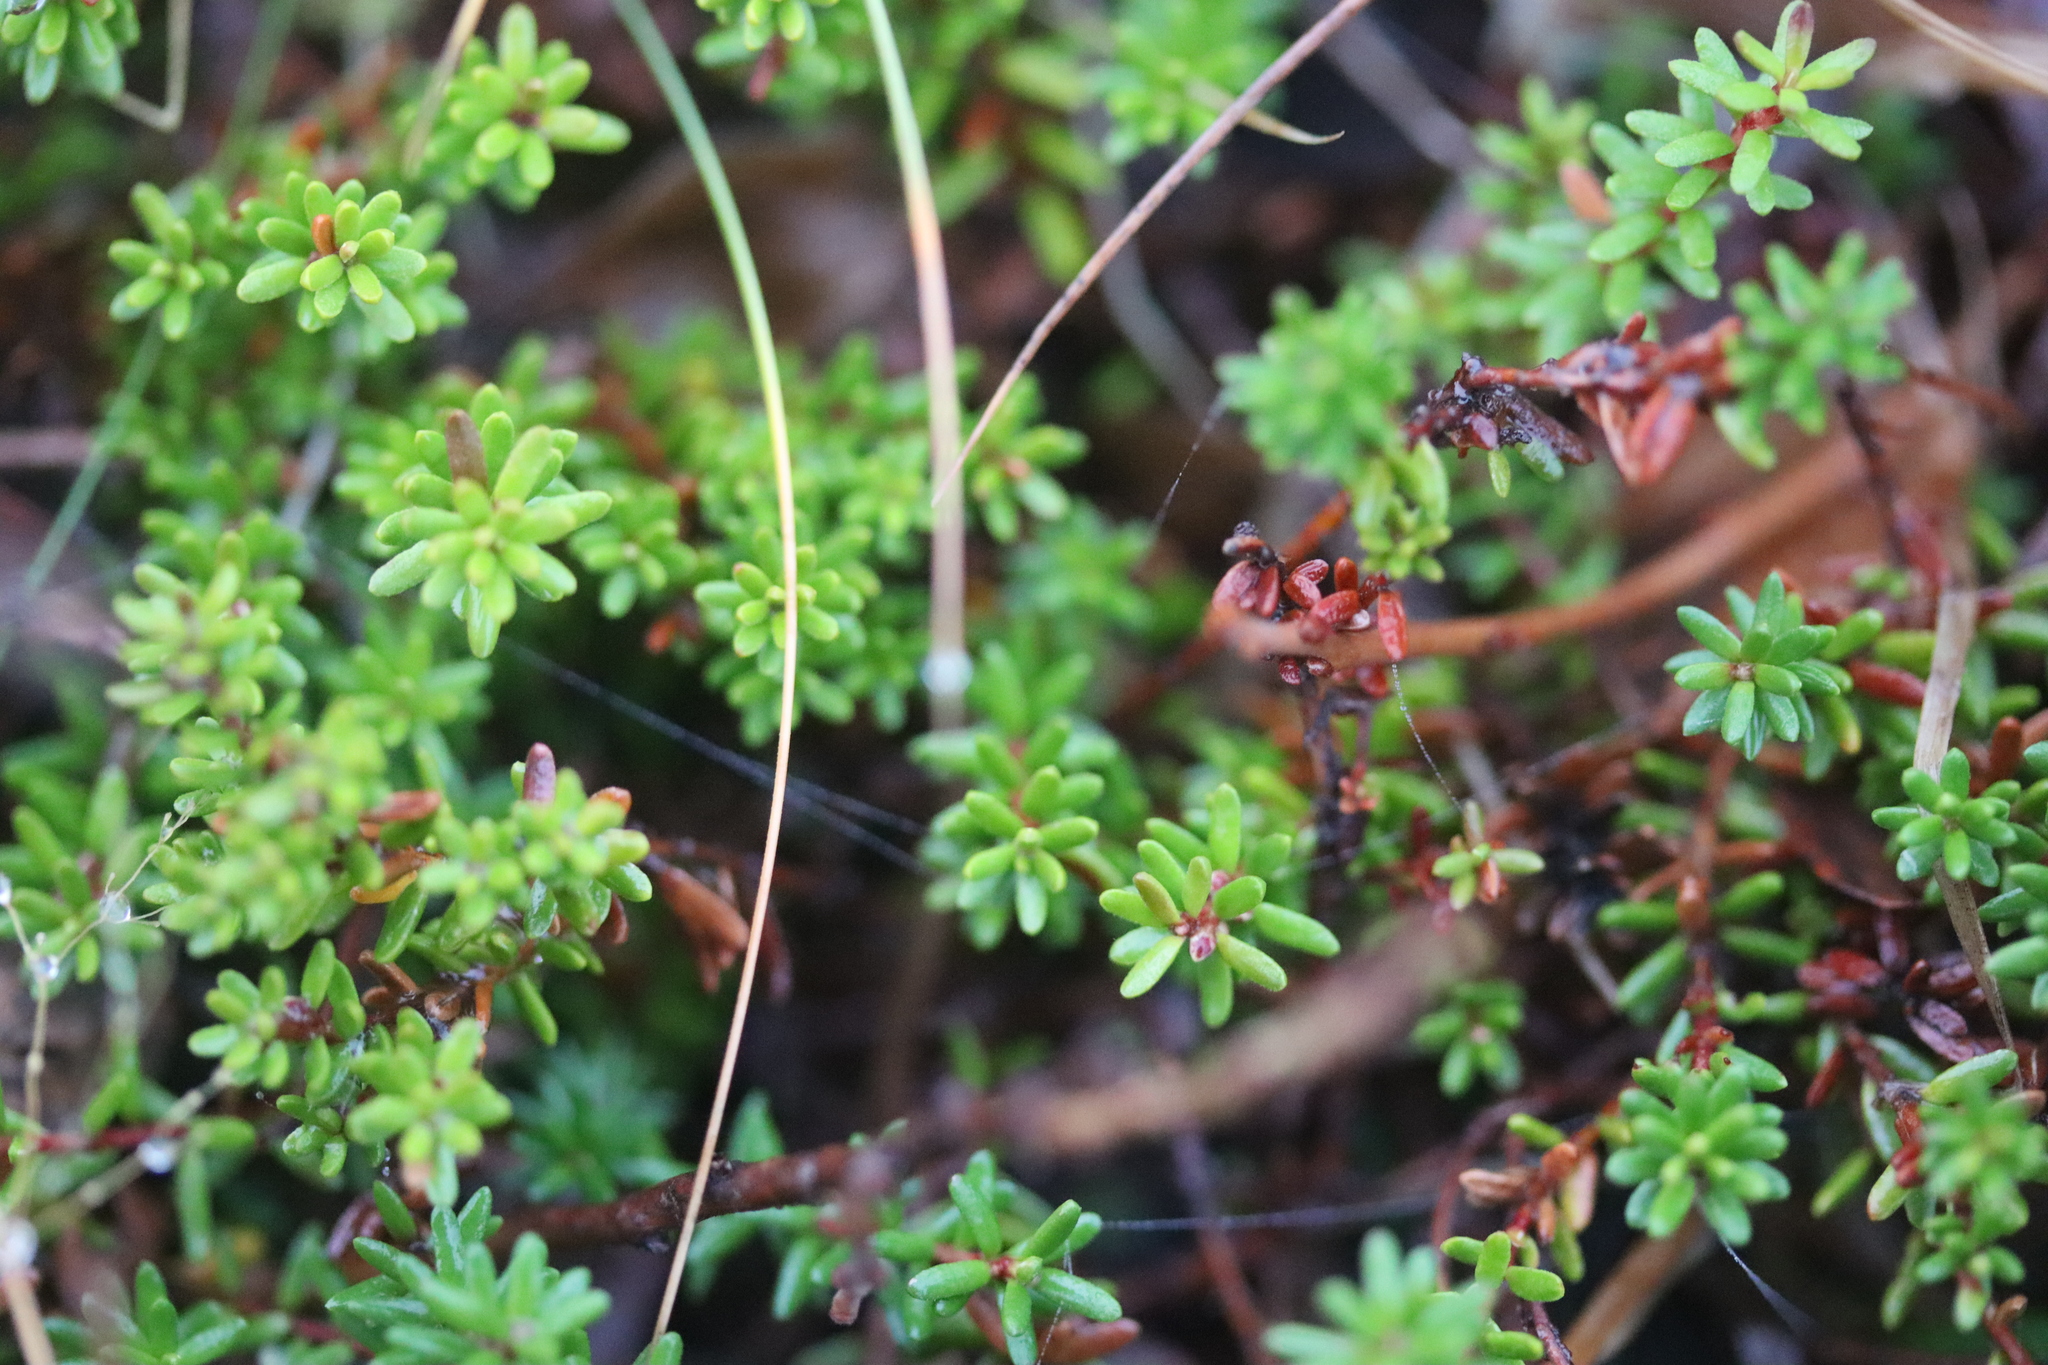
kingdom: Plantae
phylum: Tracheophyta
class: Magnoliopsida
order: Ericales
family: Ericaceae
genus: Empetrum
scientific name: Empetrum nigrum
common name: Black crowberry
